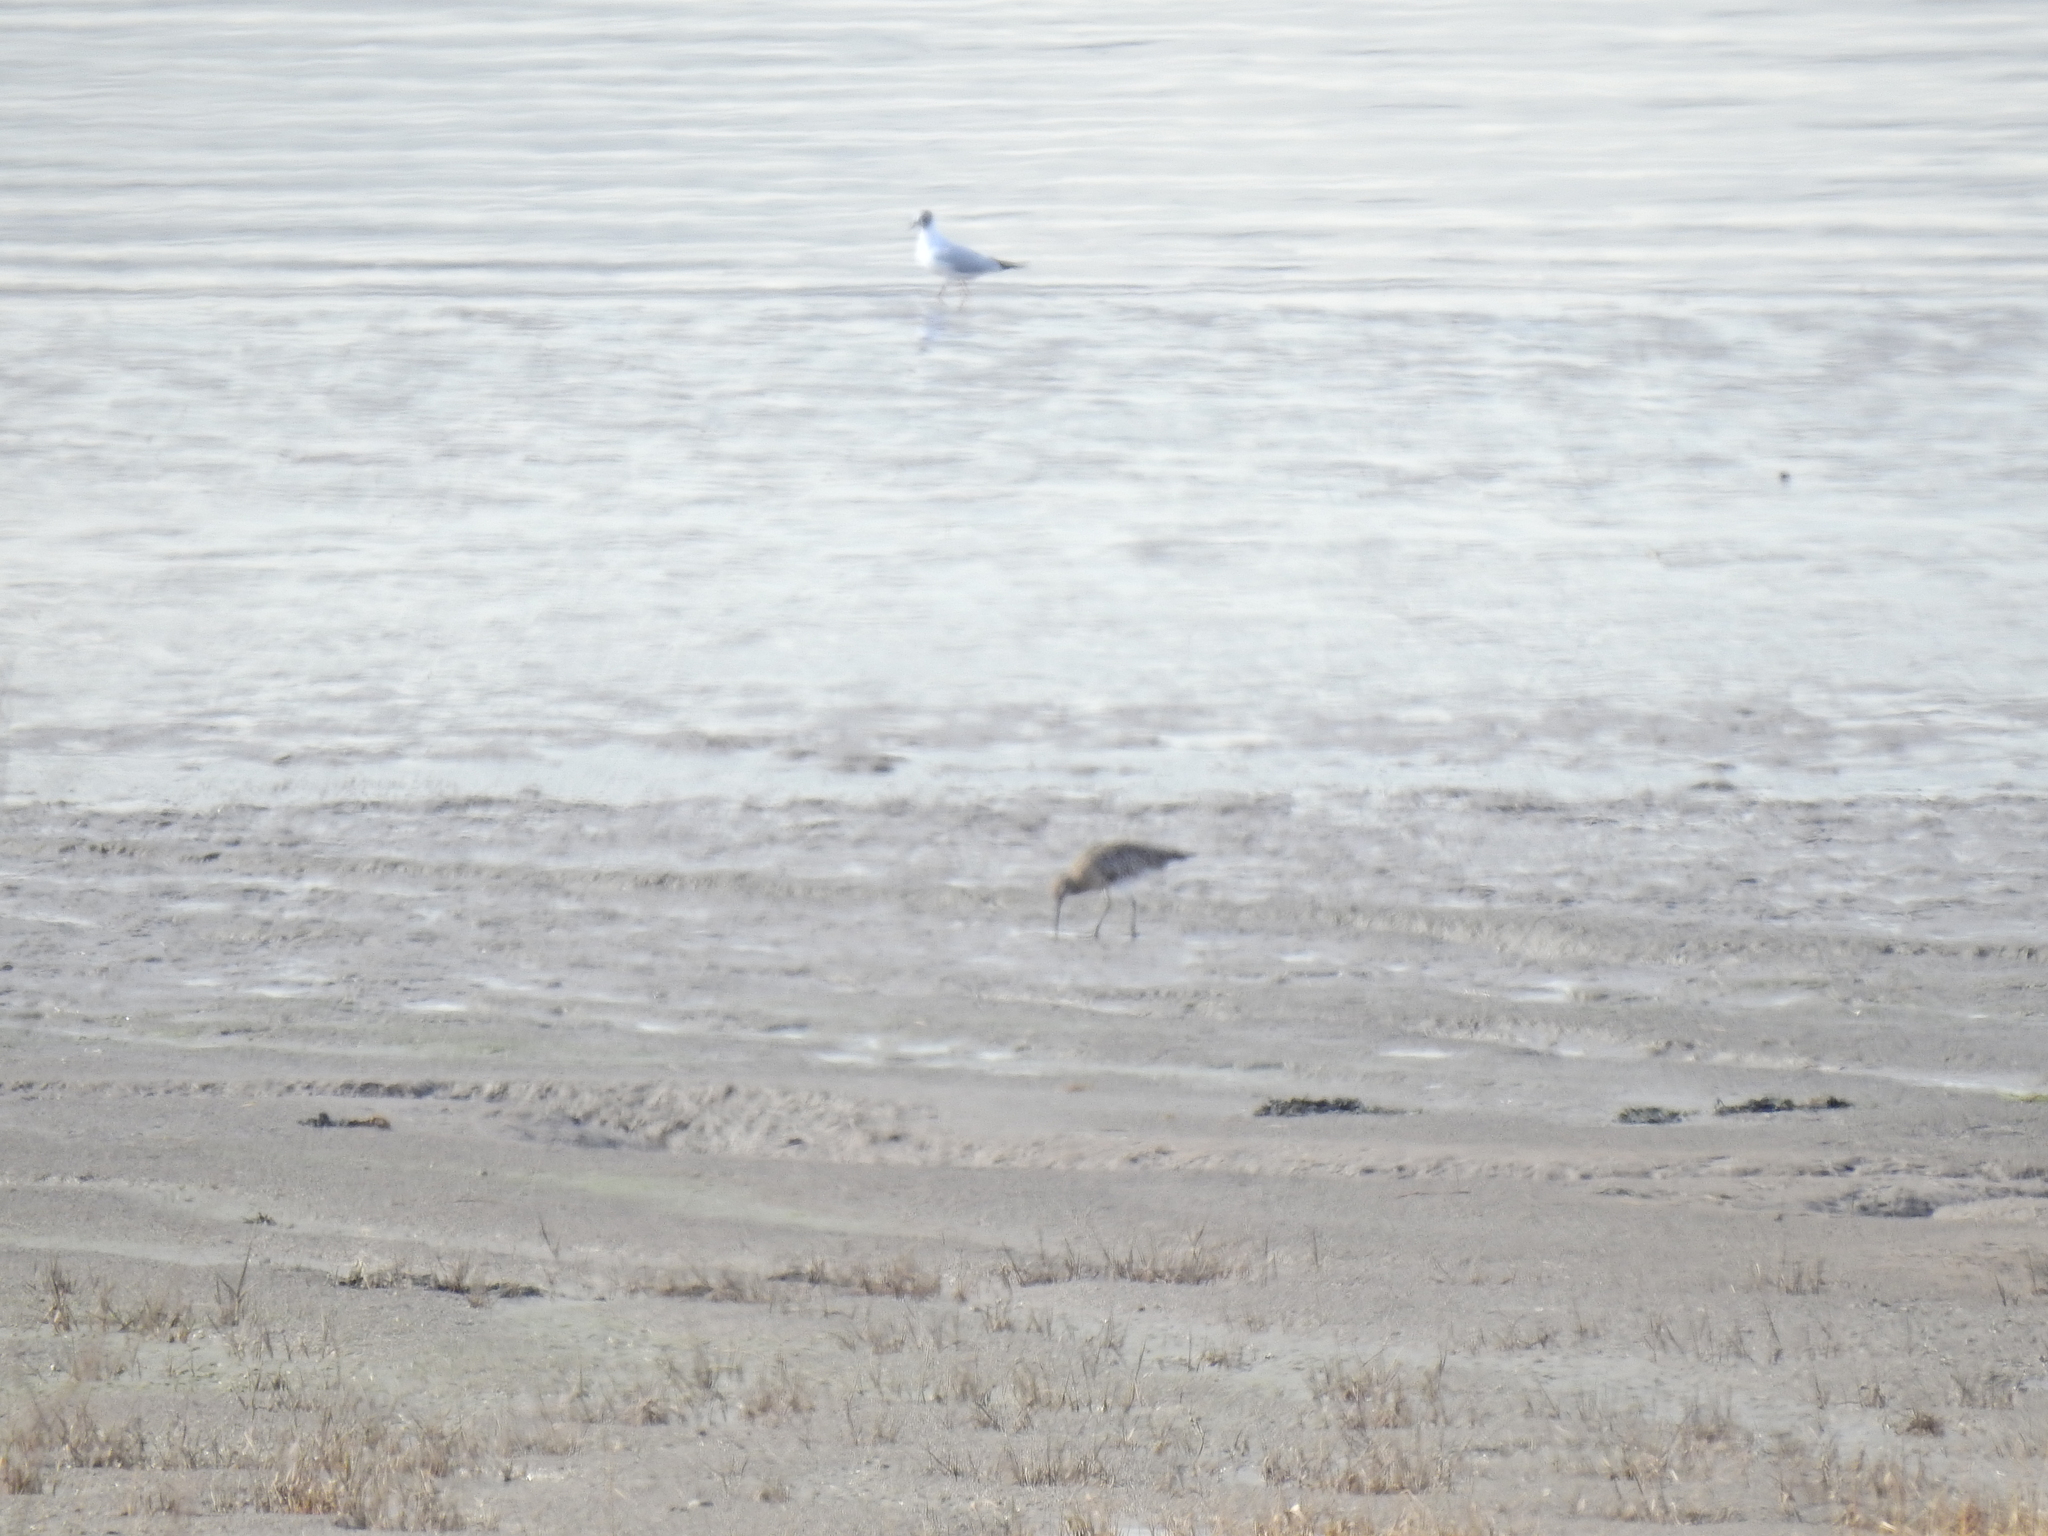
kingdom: Animalia
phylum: Chordata
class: Aves
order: Charadriiformes
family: Scolopacidae
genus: Numenius
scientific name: Numenius arquata
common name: Eurasian curlew
